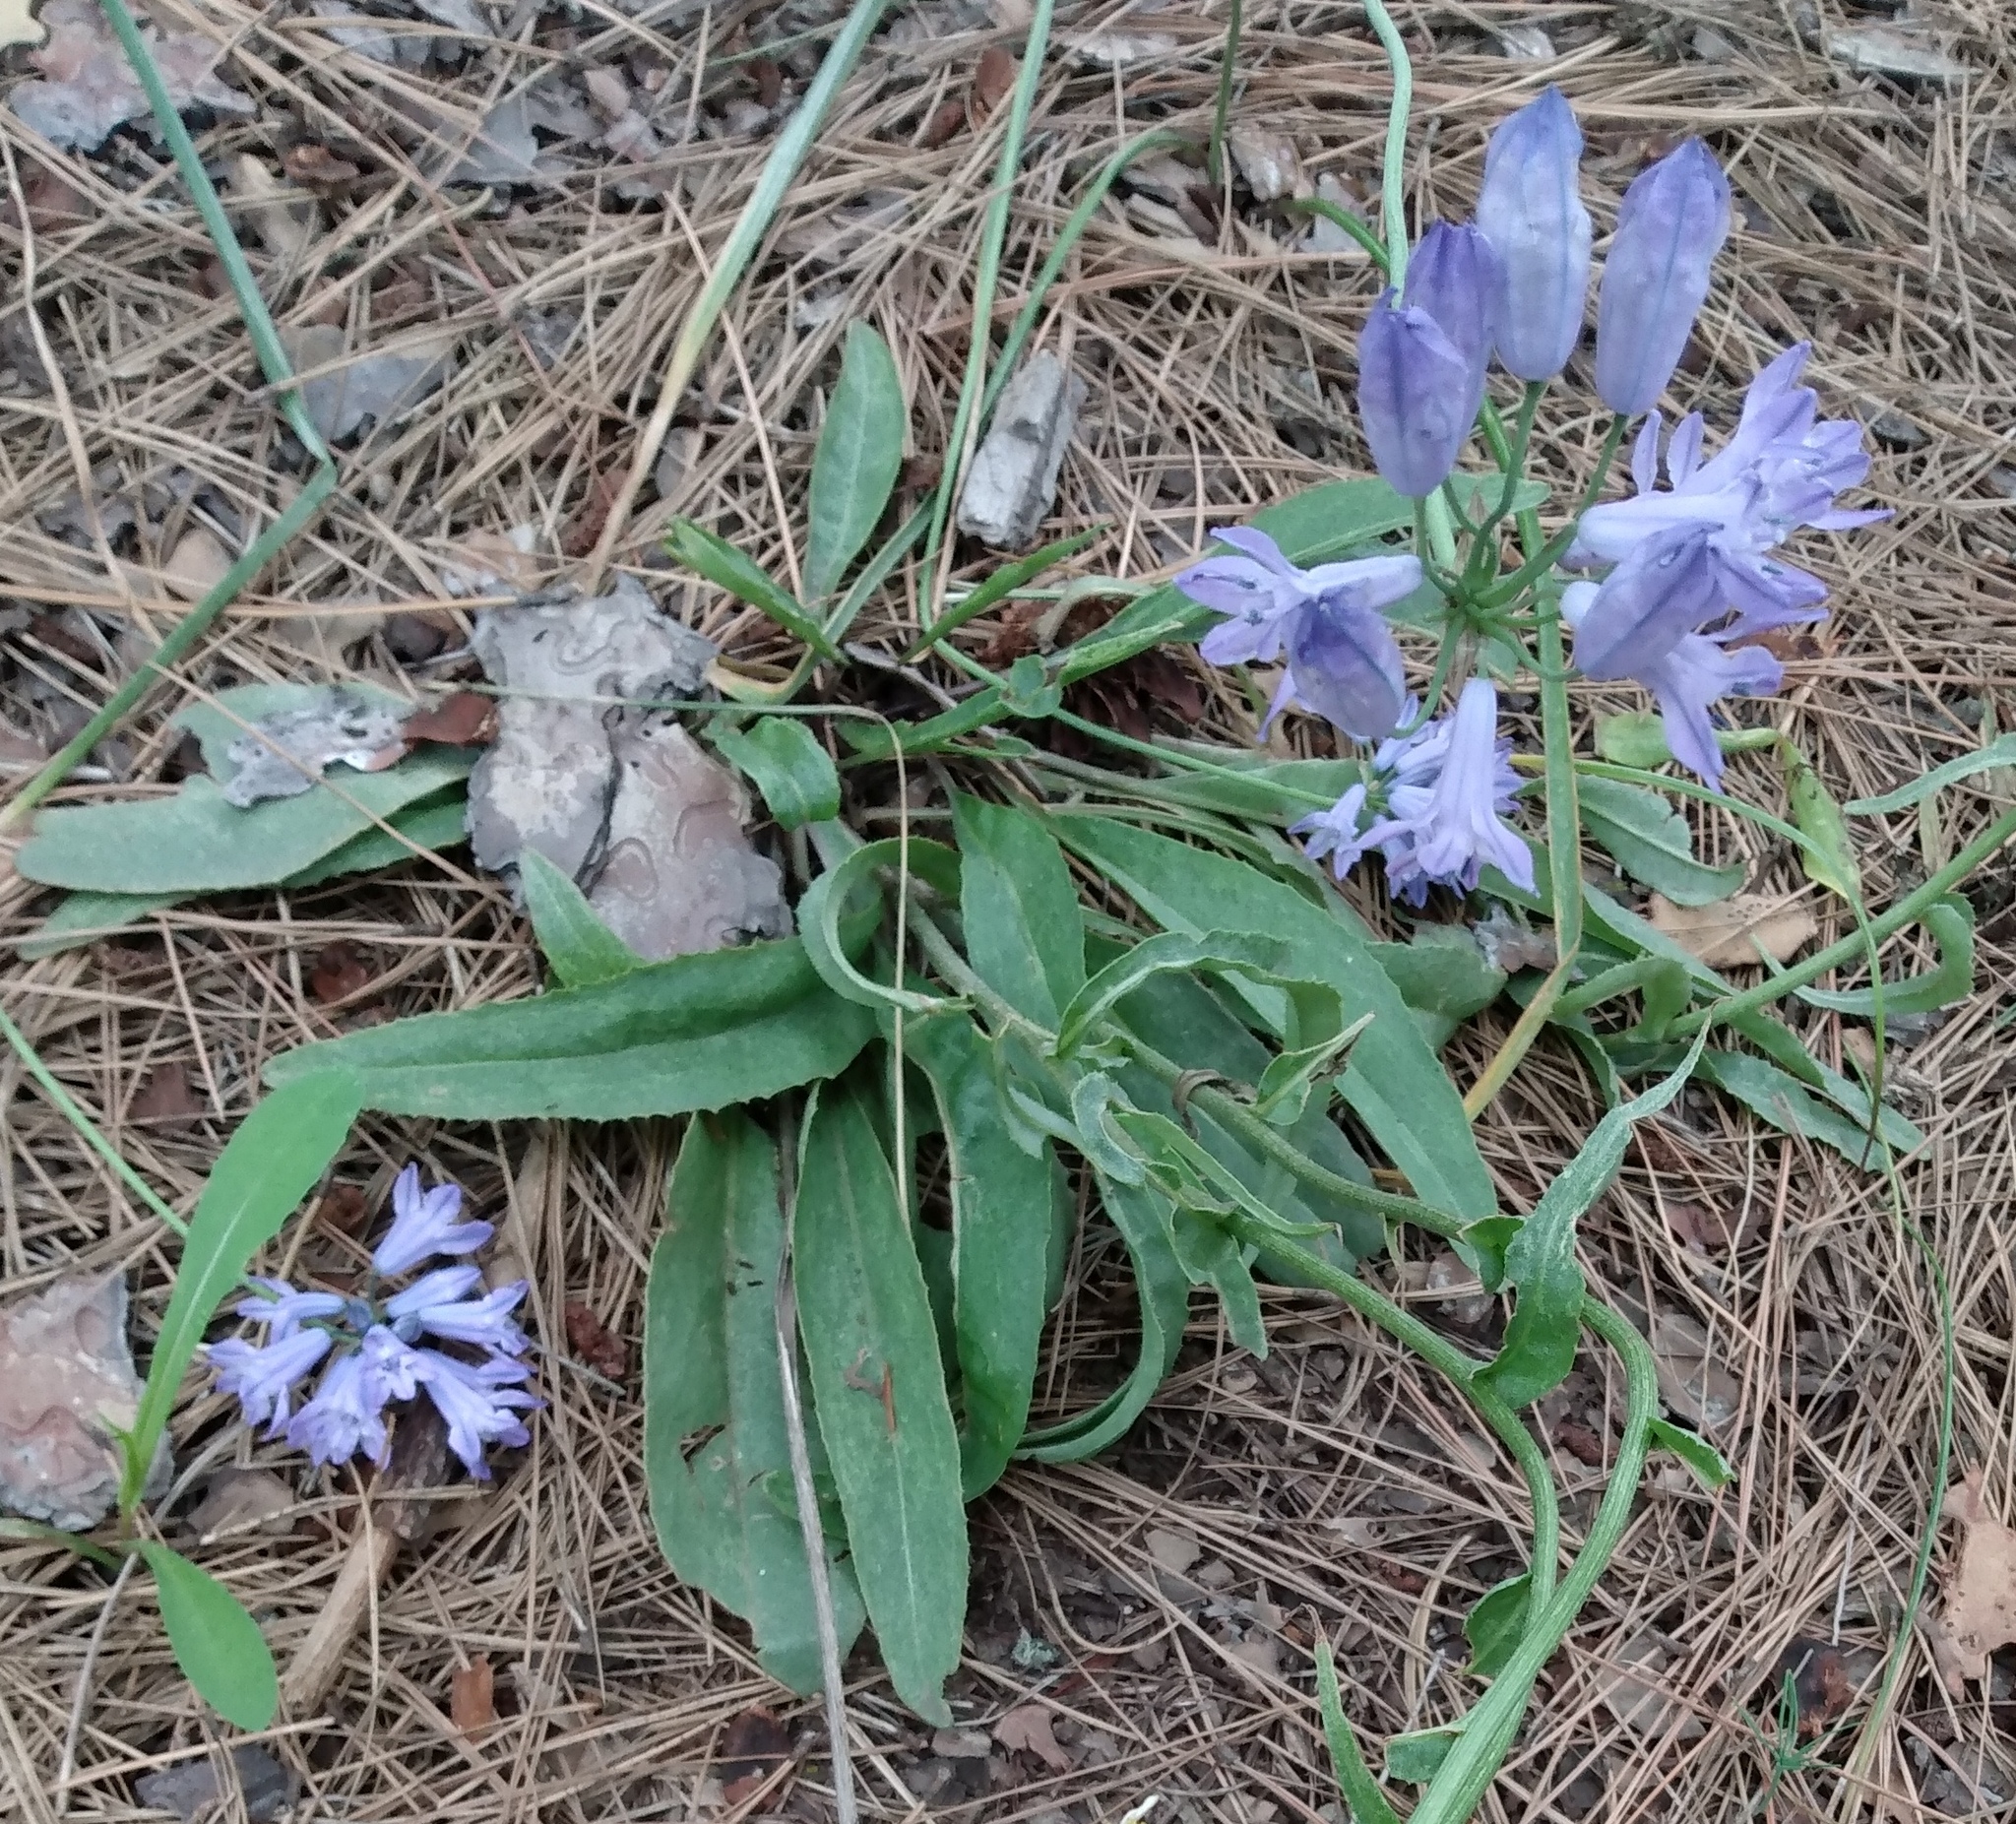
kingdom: Plantae
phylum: Tracheophyta
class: Liliopsida
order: Asparagales
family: Asparagaceae
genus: Triteleia
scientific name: Triteleia grandiflora
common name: Wild hyacinth
